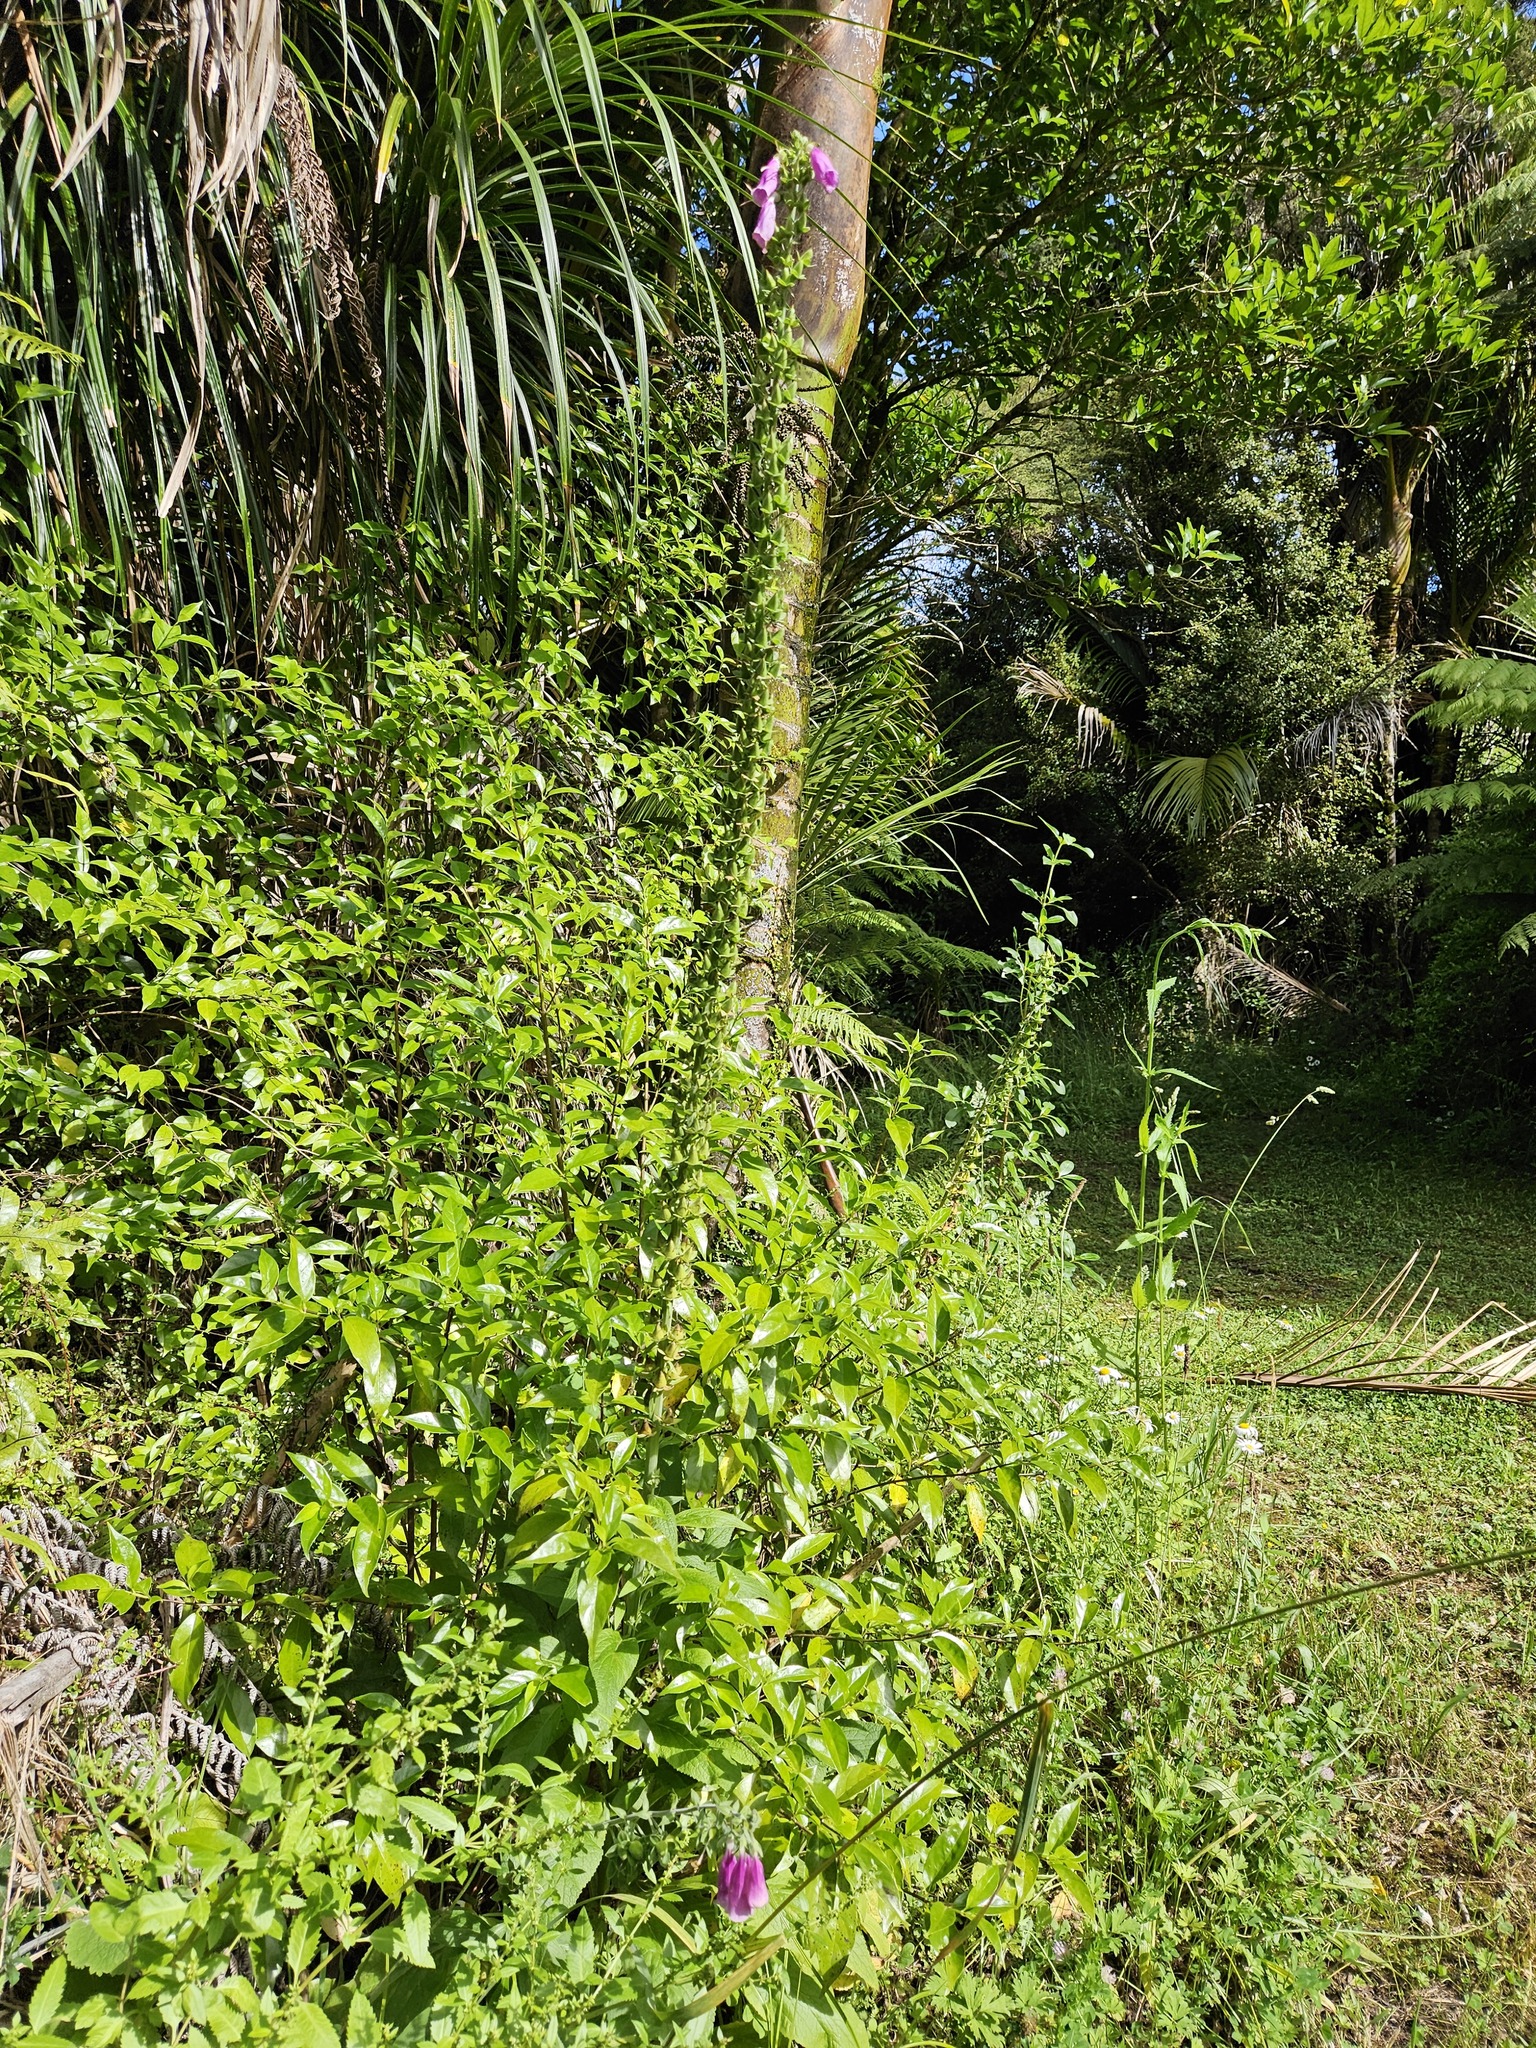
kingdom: Plantae
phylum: Tracheophyta
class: Magnoliopsida
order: Lamiales
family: Plantaginaceae
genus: Digitalis
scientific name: Digitalis purpurea
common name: Foxglove
